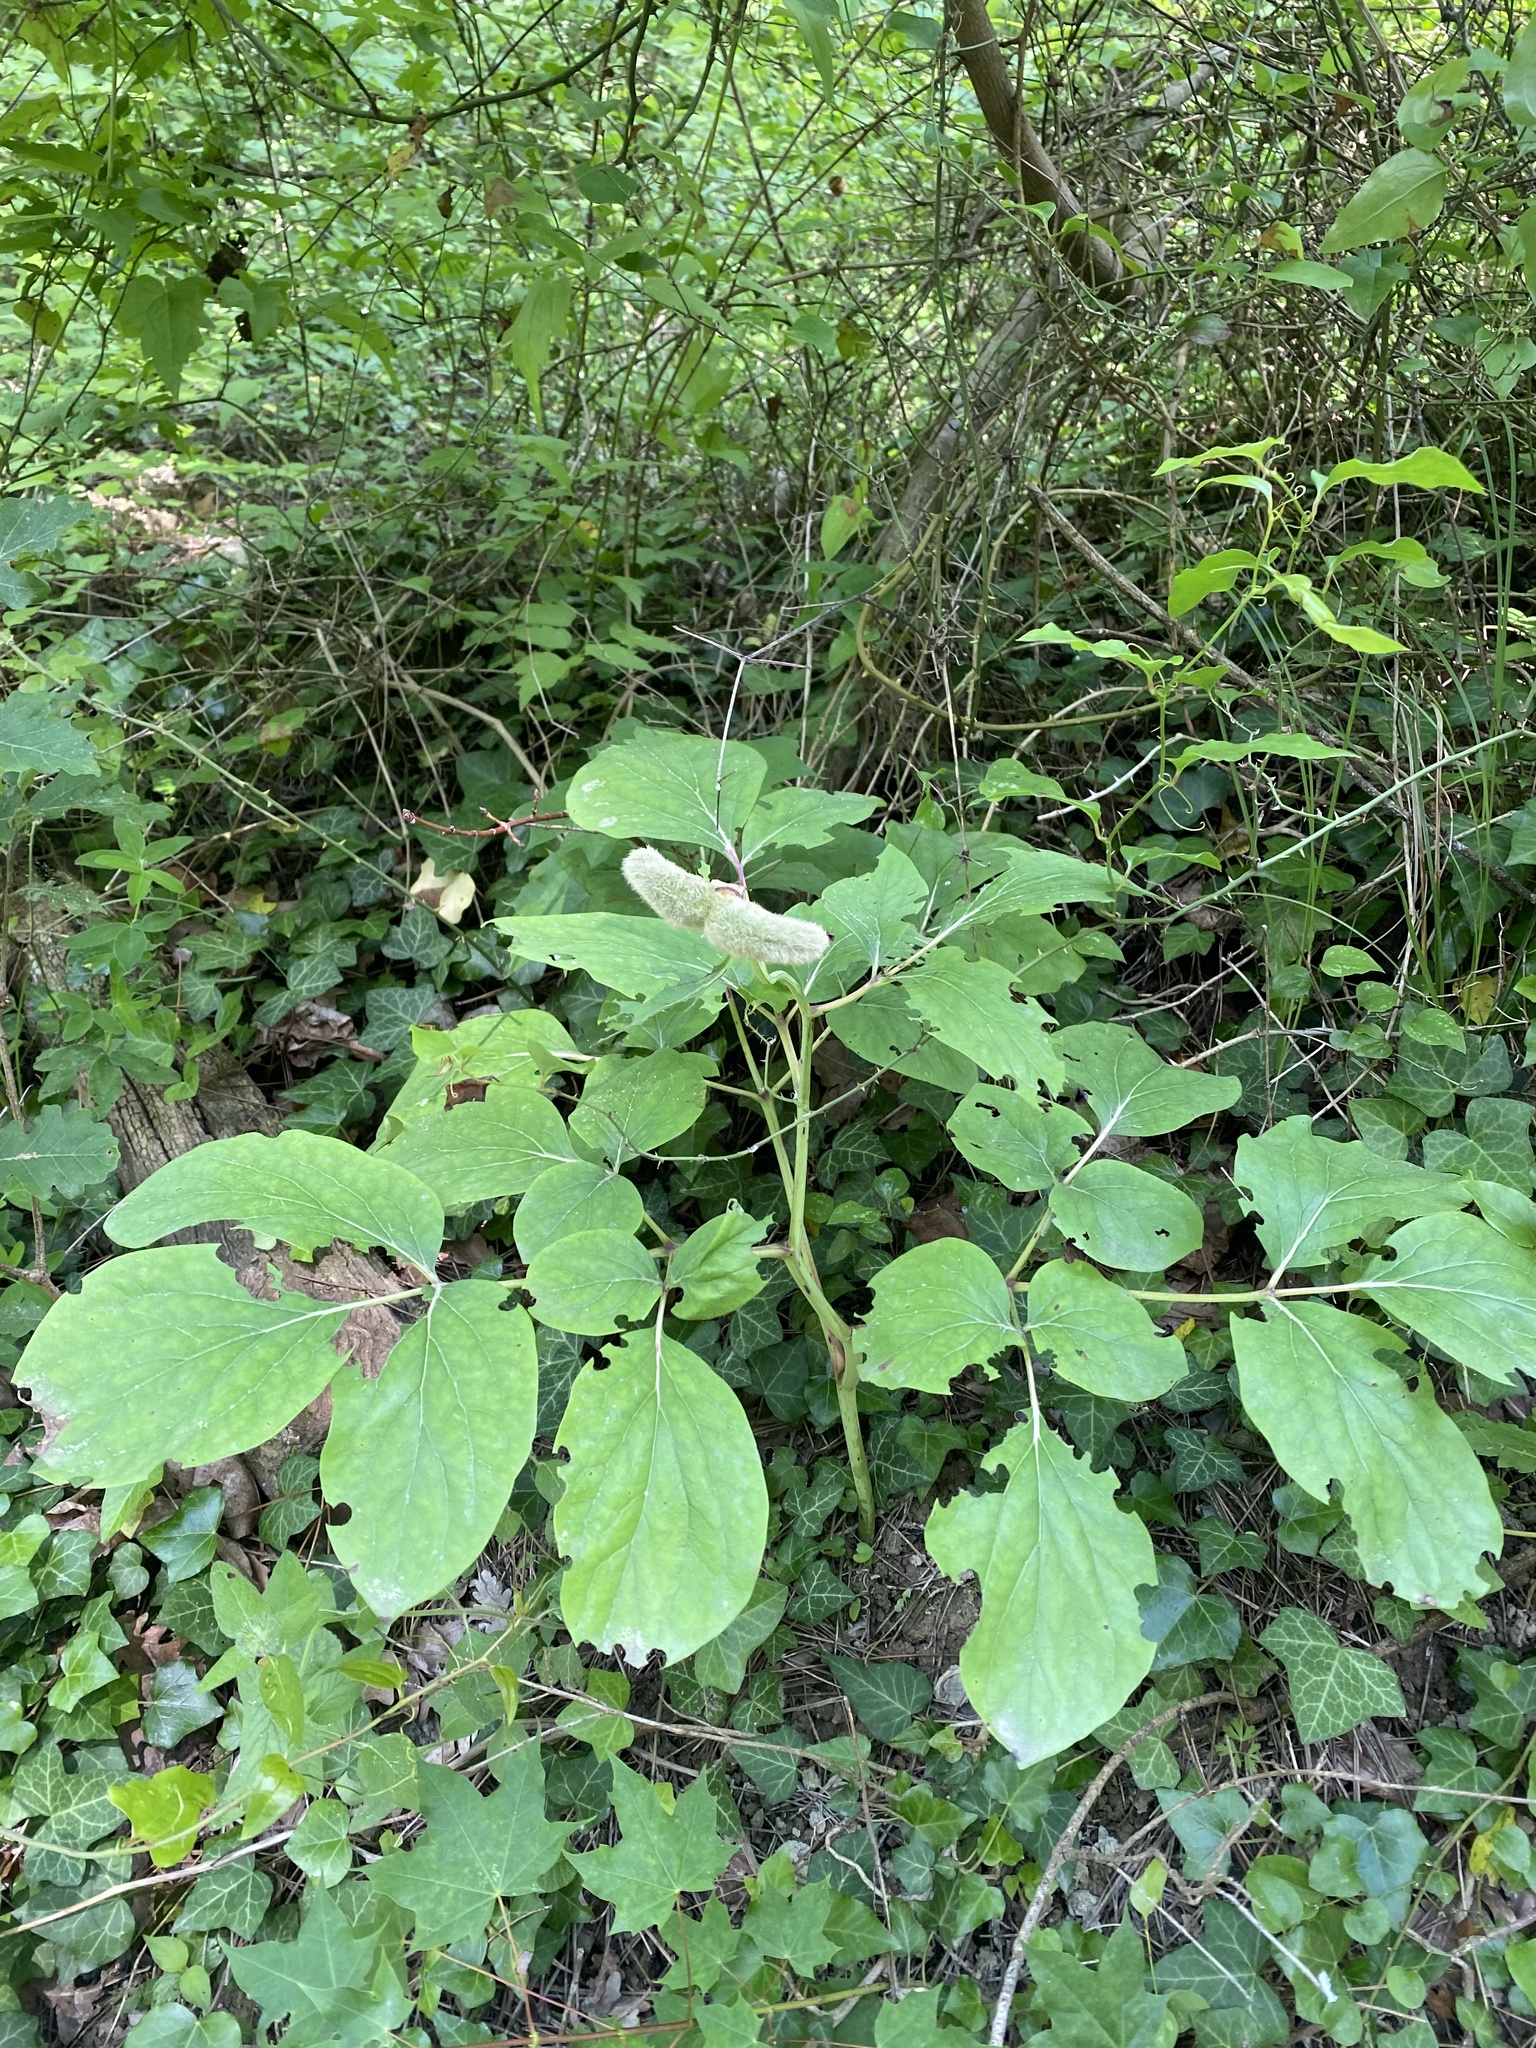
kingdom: Plantae
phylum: Tracheophyta
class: Magnoliopsida
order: Saxifragales
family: Paeoniaceae
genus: Paeonia
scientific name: Paeonia caucasica
